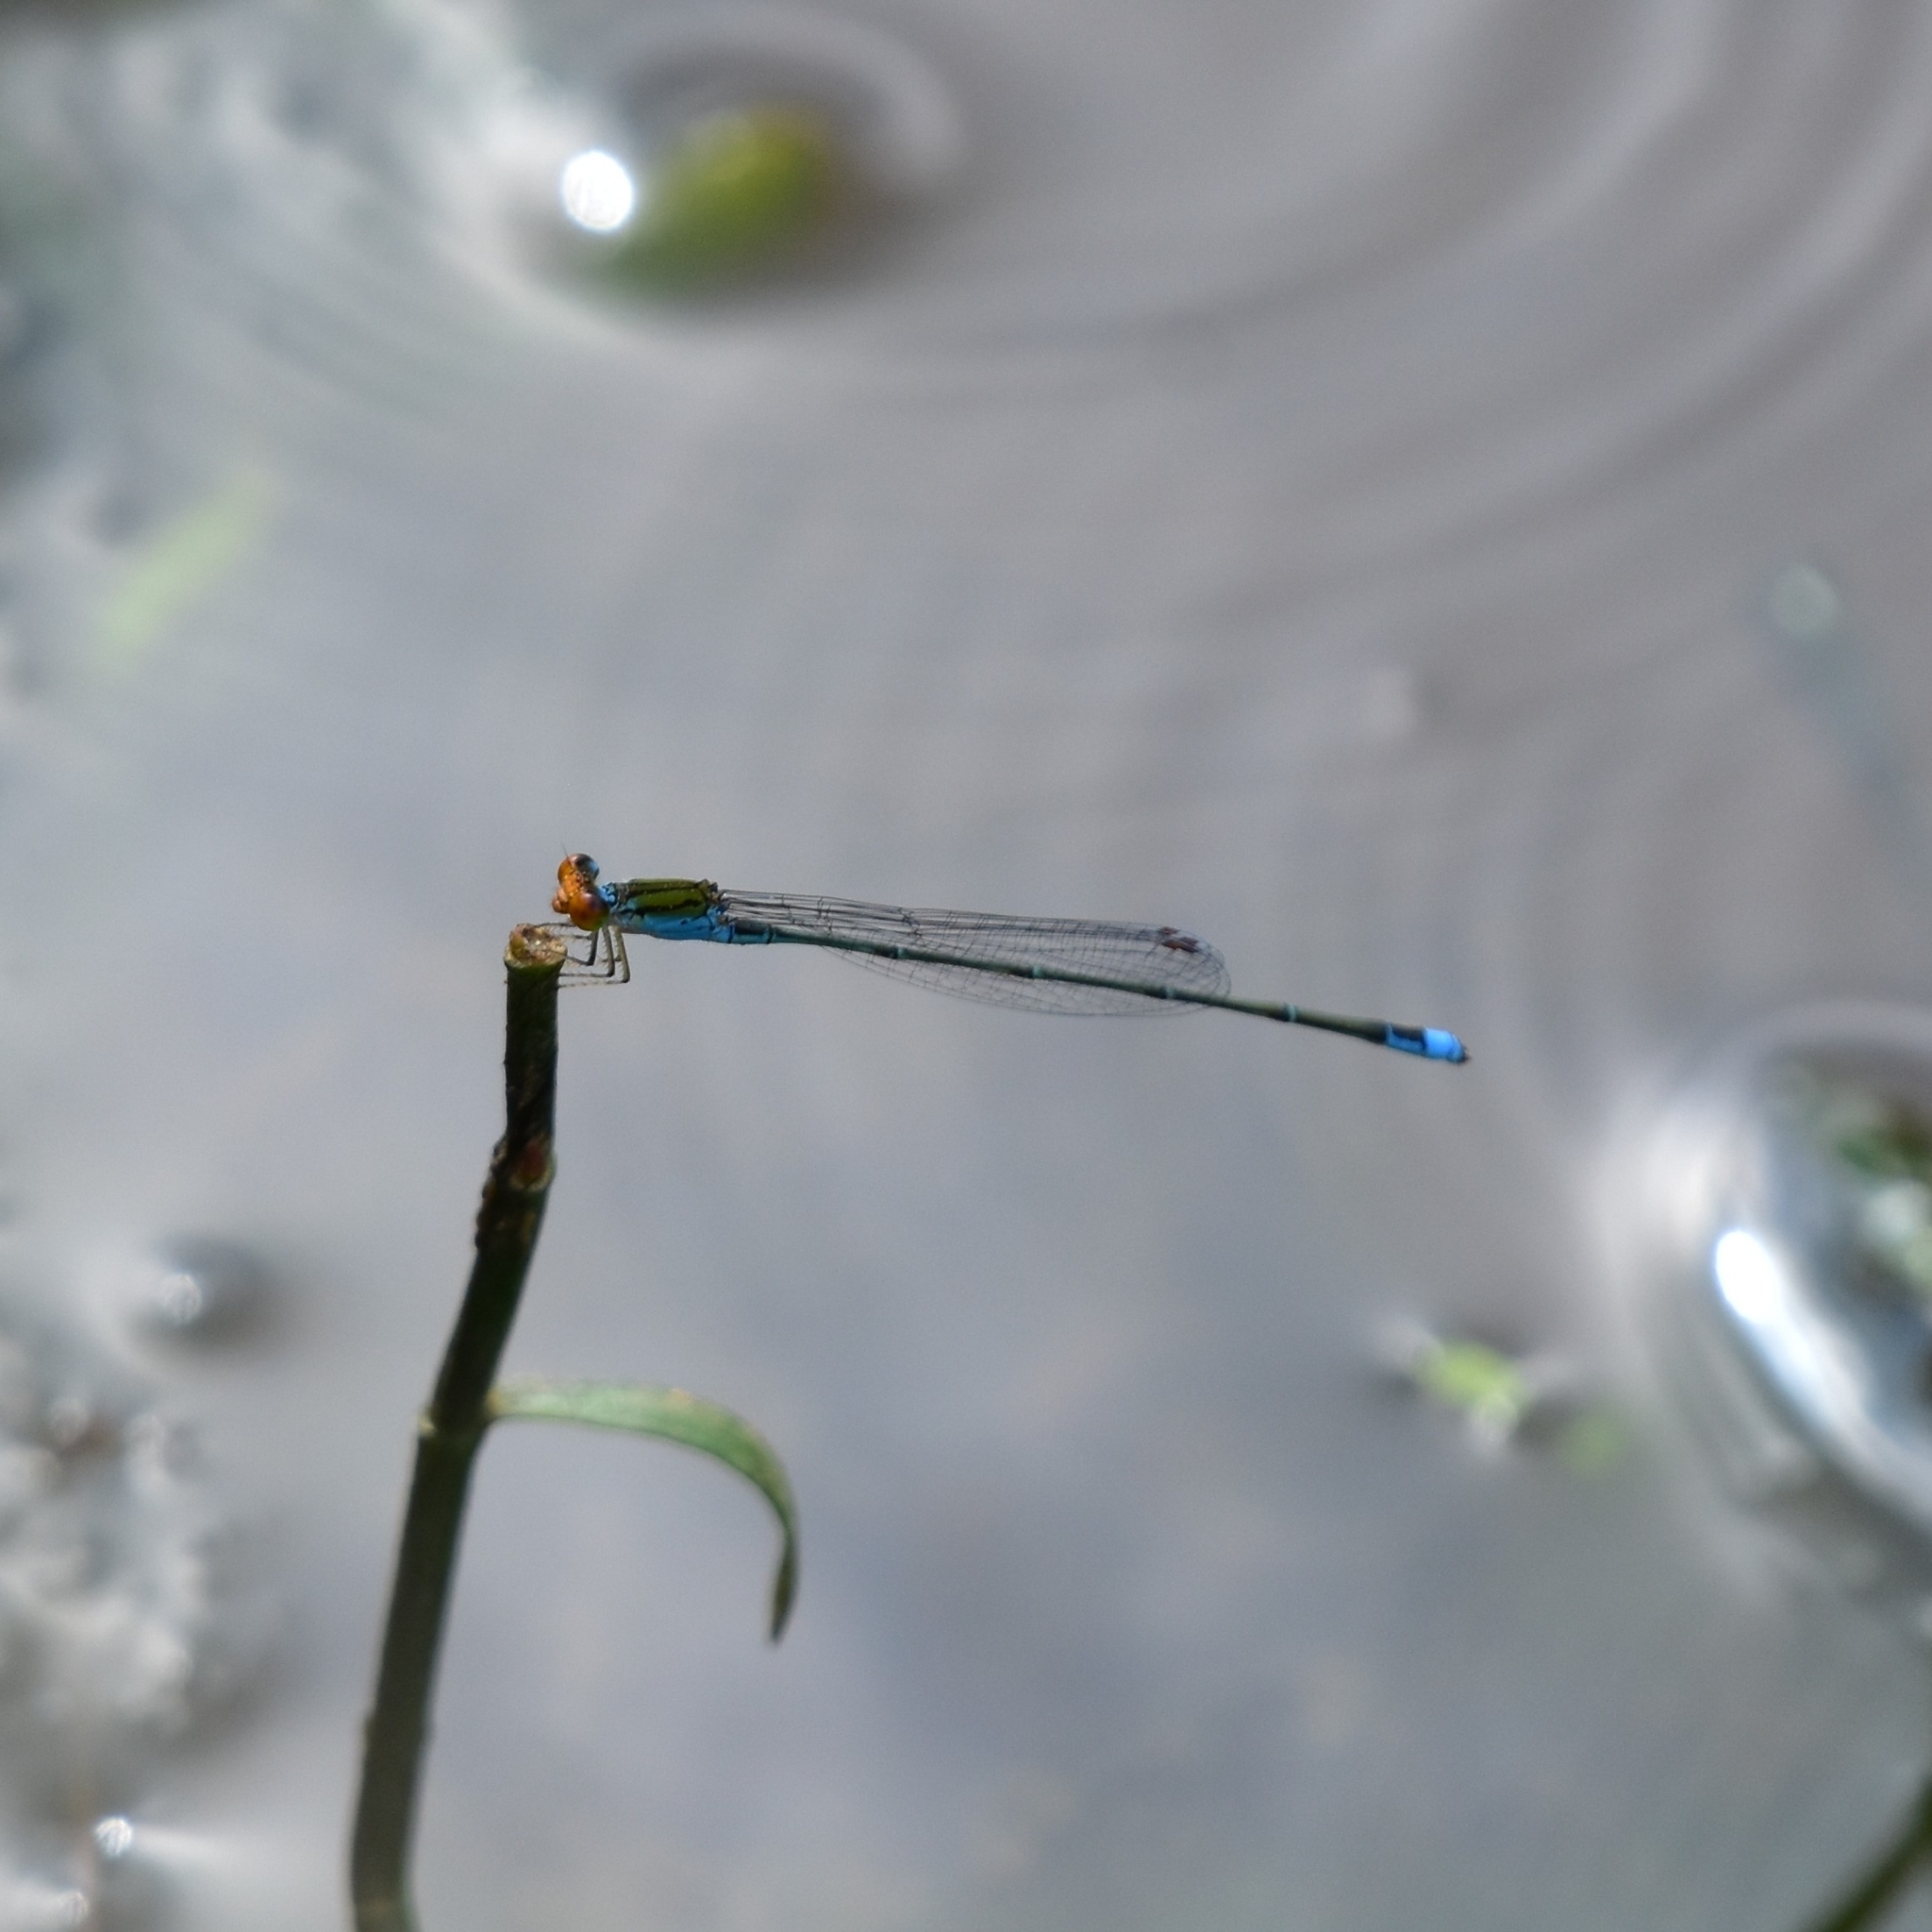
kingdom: Animalia
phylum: Arthropoda
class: Insecta
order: Odonata
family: Coenagrionidae
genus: Pseudagrion
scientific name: Pseudagrion rubriceps
